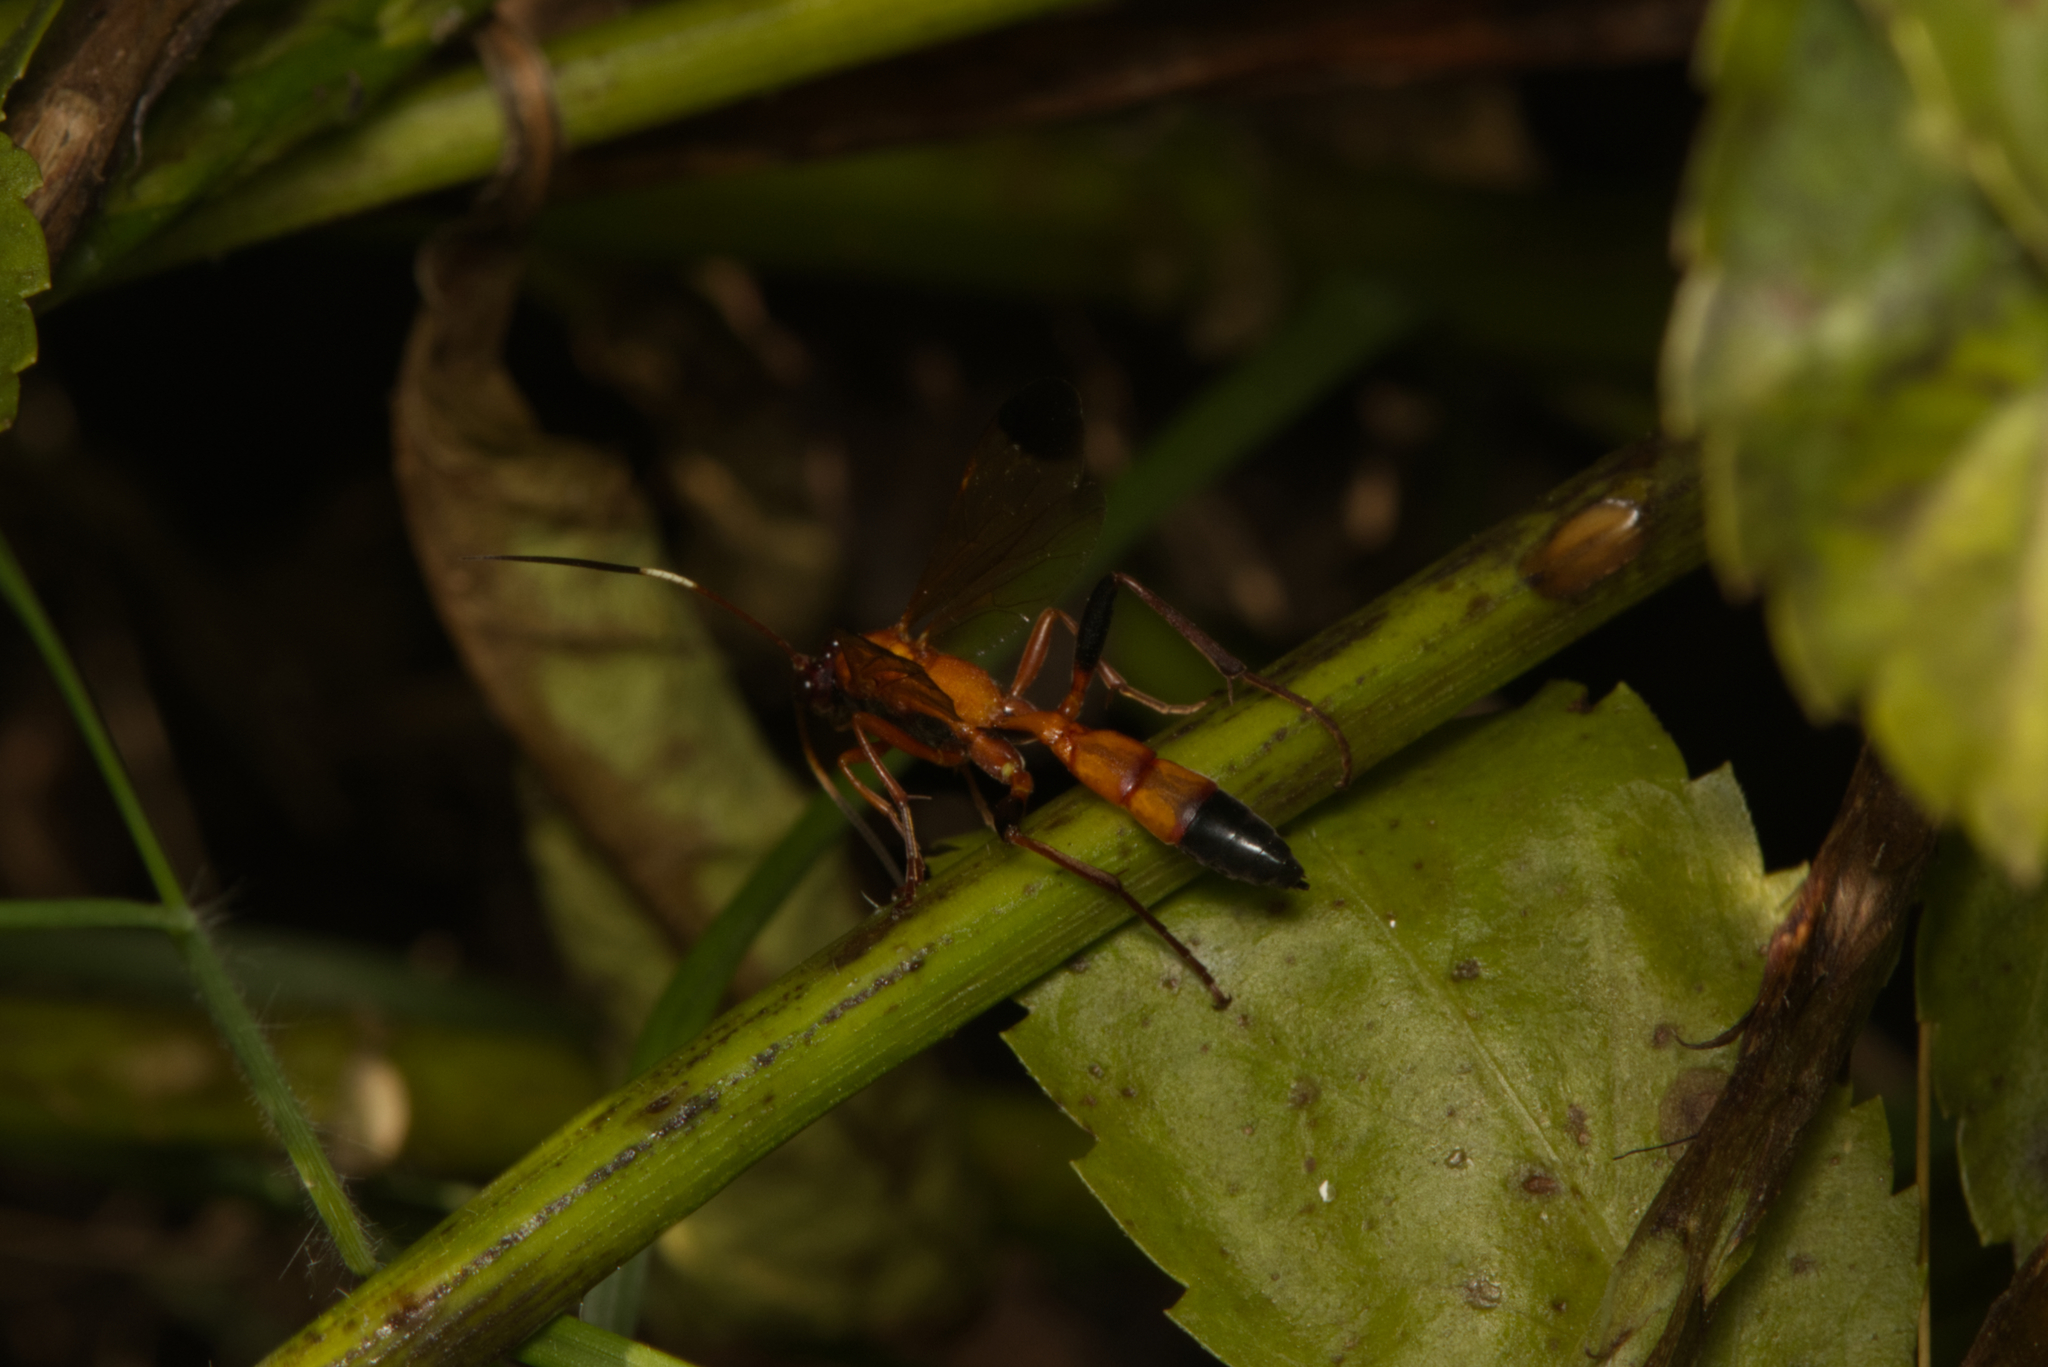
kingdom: Animalia
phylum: Arthropoda
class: Insecta
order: Hymenoptera
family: Ichneumonidae
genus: Ctenochares
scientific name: Ctenochares bicolorus
